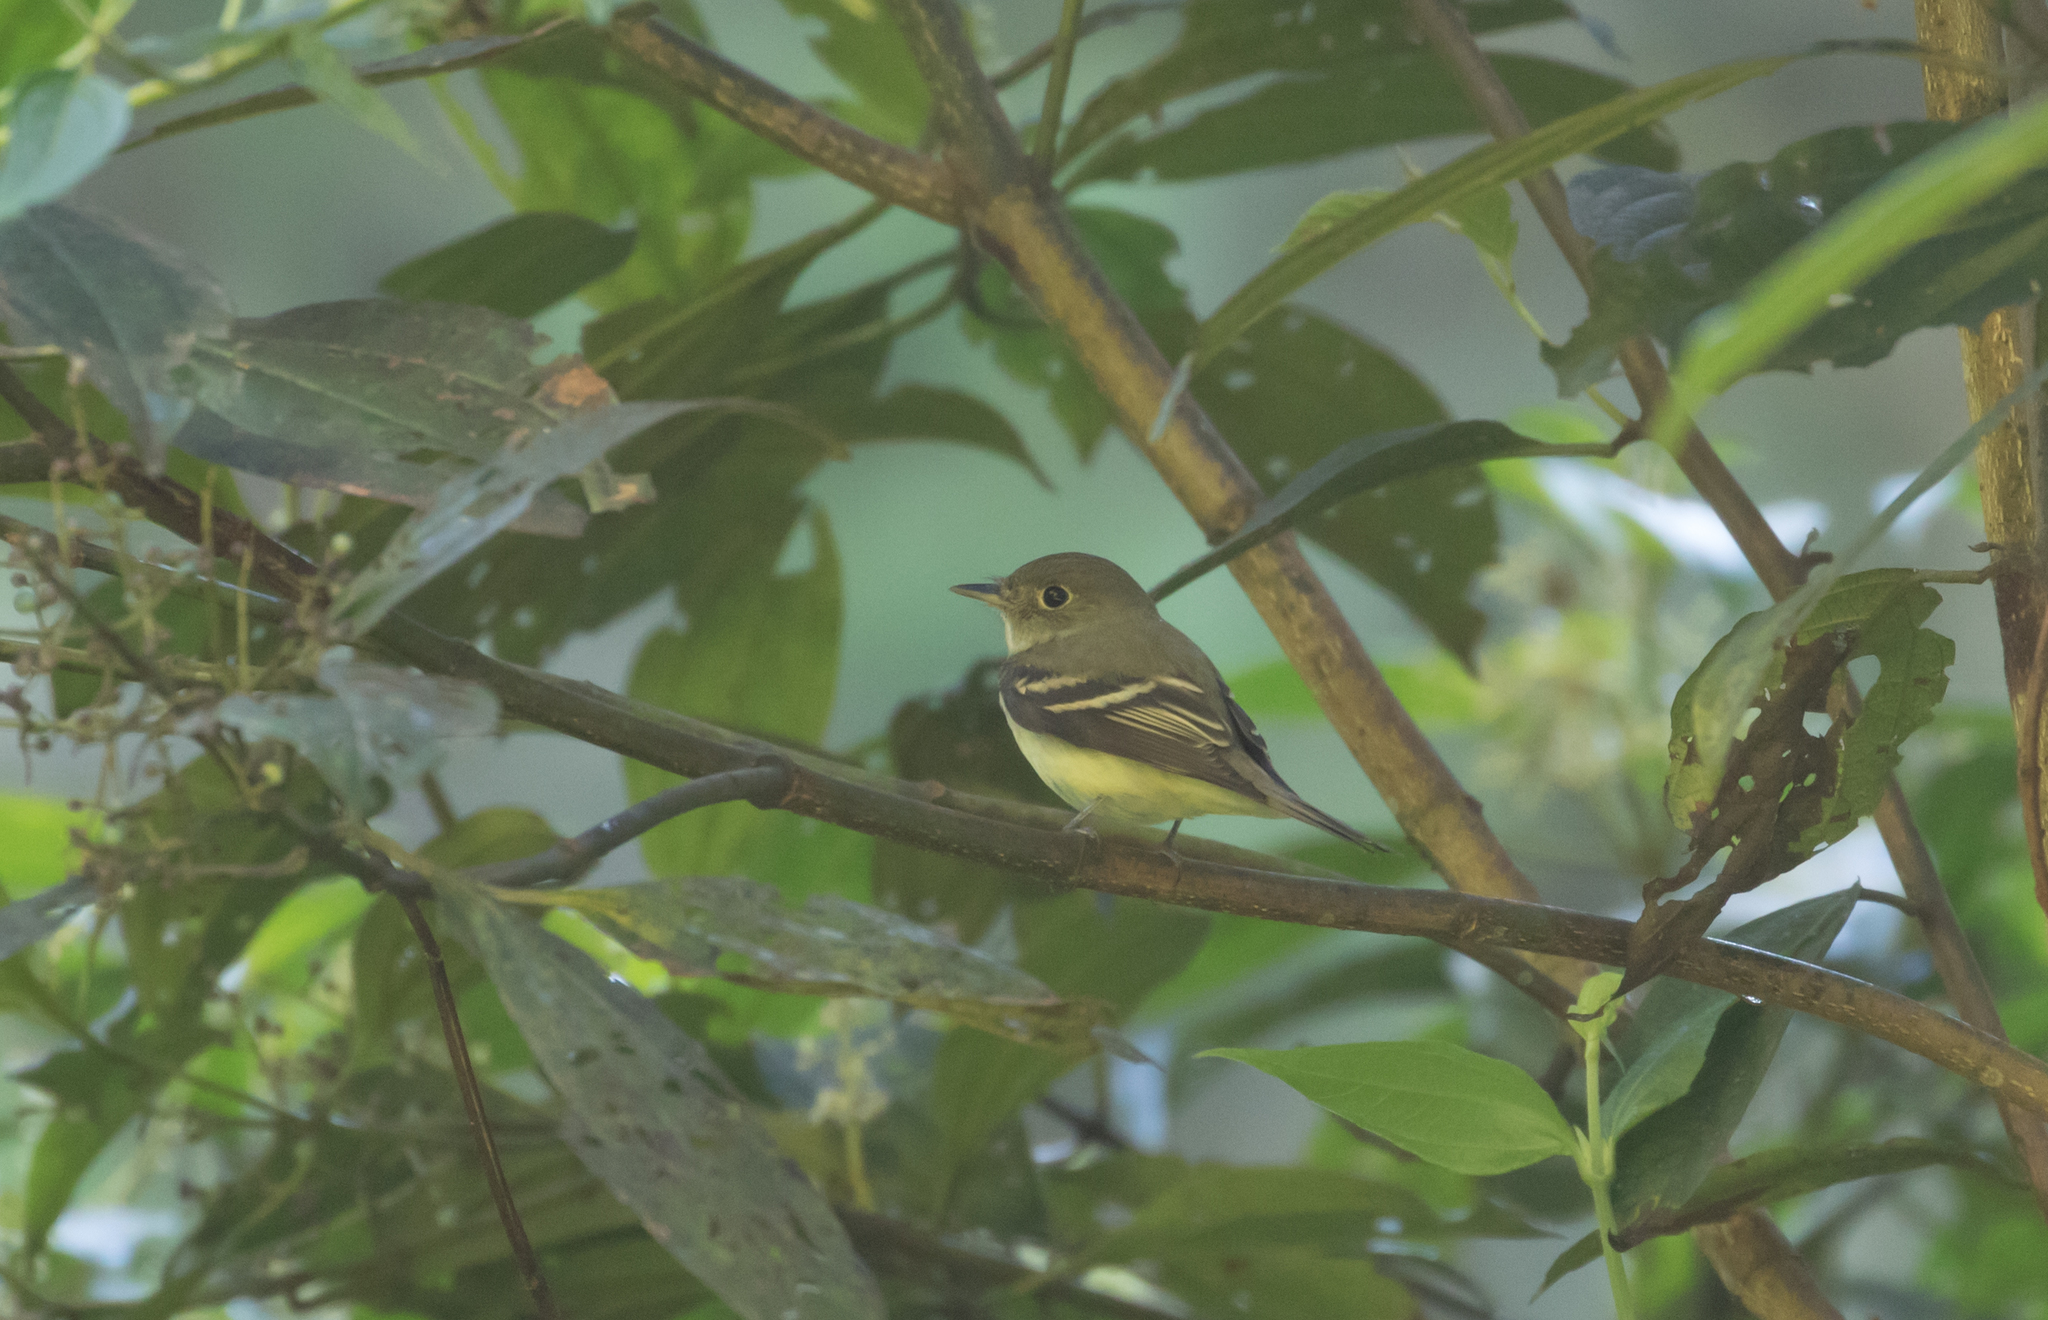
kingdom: Animalia
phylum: Chordata
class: Aves
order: Passeriformes
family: Tyrannidae
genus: Empidonax
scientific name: Empidonax virescens
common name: Acadian flycatcher
